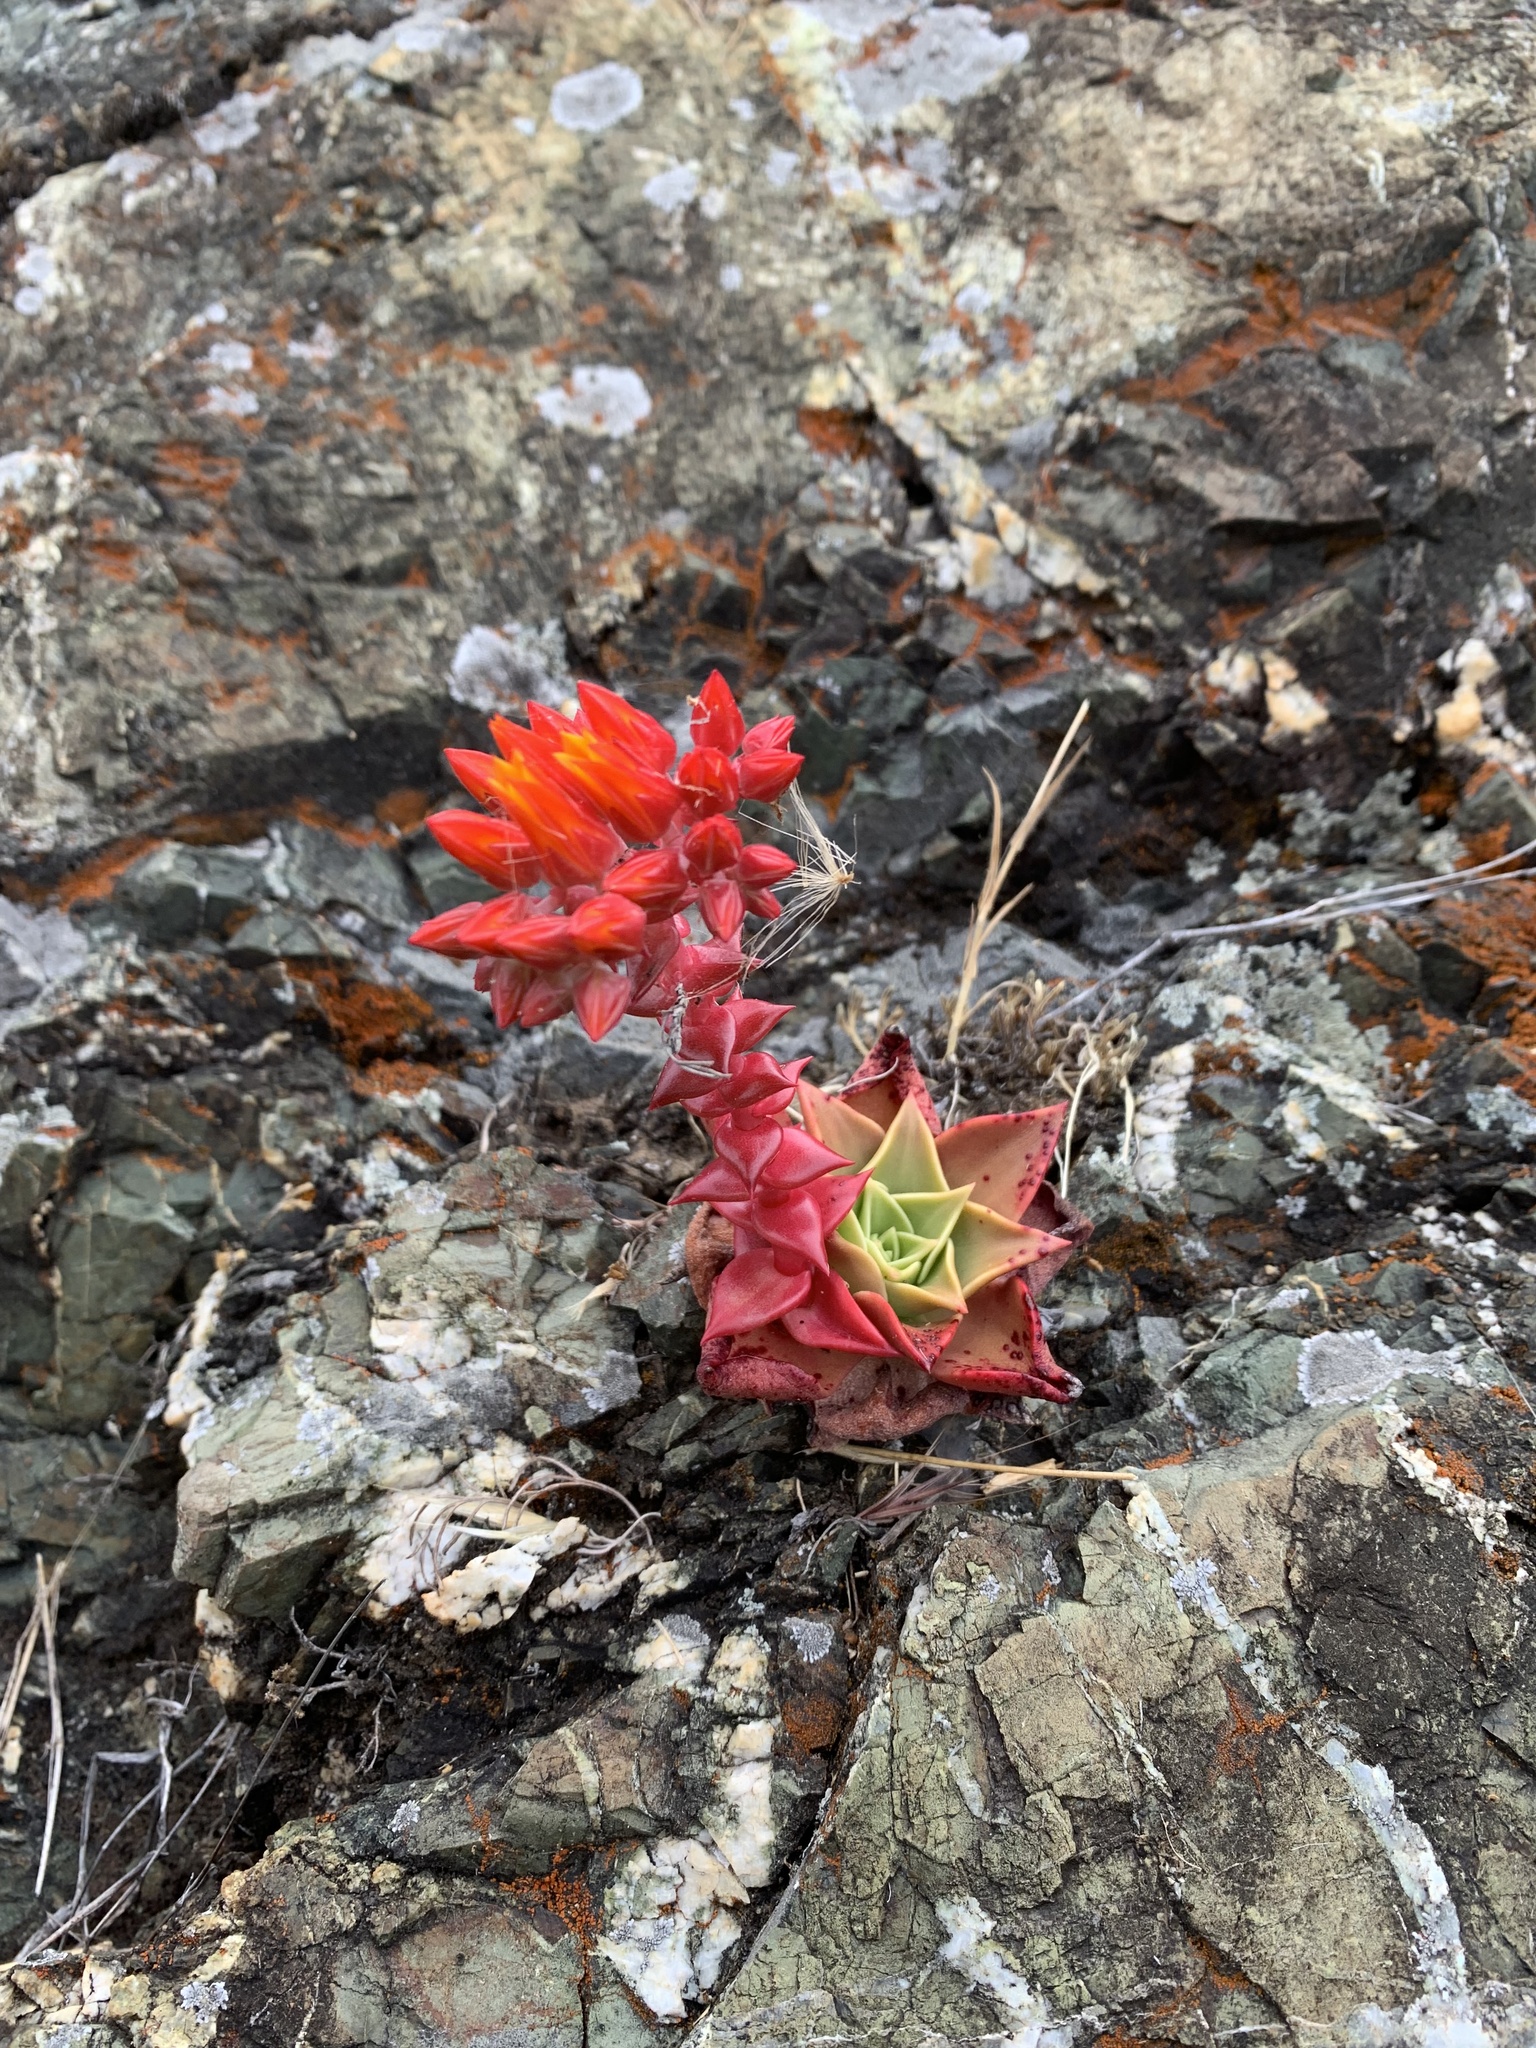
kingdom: Plantae
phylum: Tracheophyta
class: Magnoliopsida
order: Saxifragales
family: Crassulaceae
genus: Dudleya
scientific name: Dudleya cymosa
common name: Canyon dudleya
